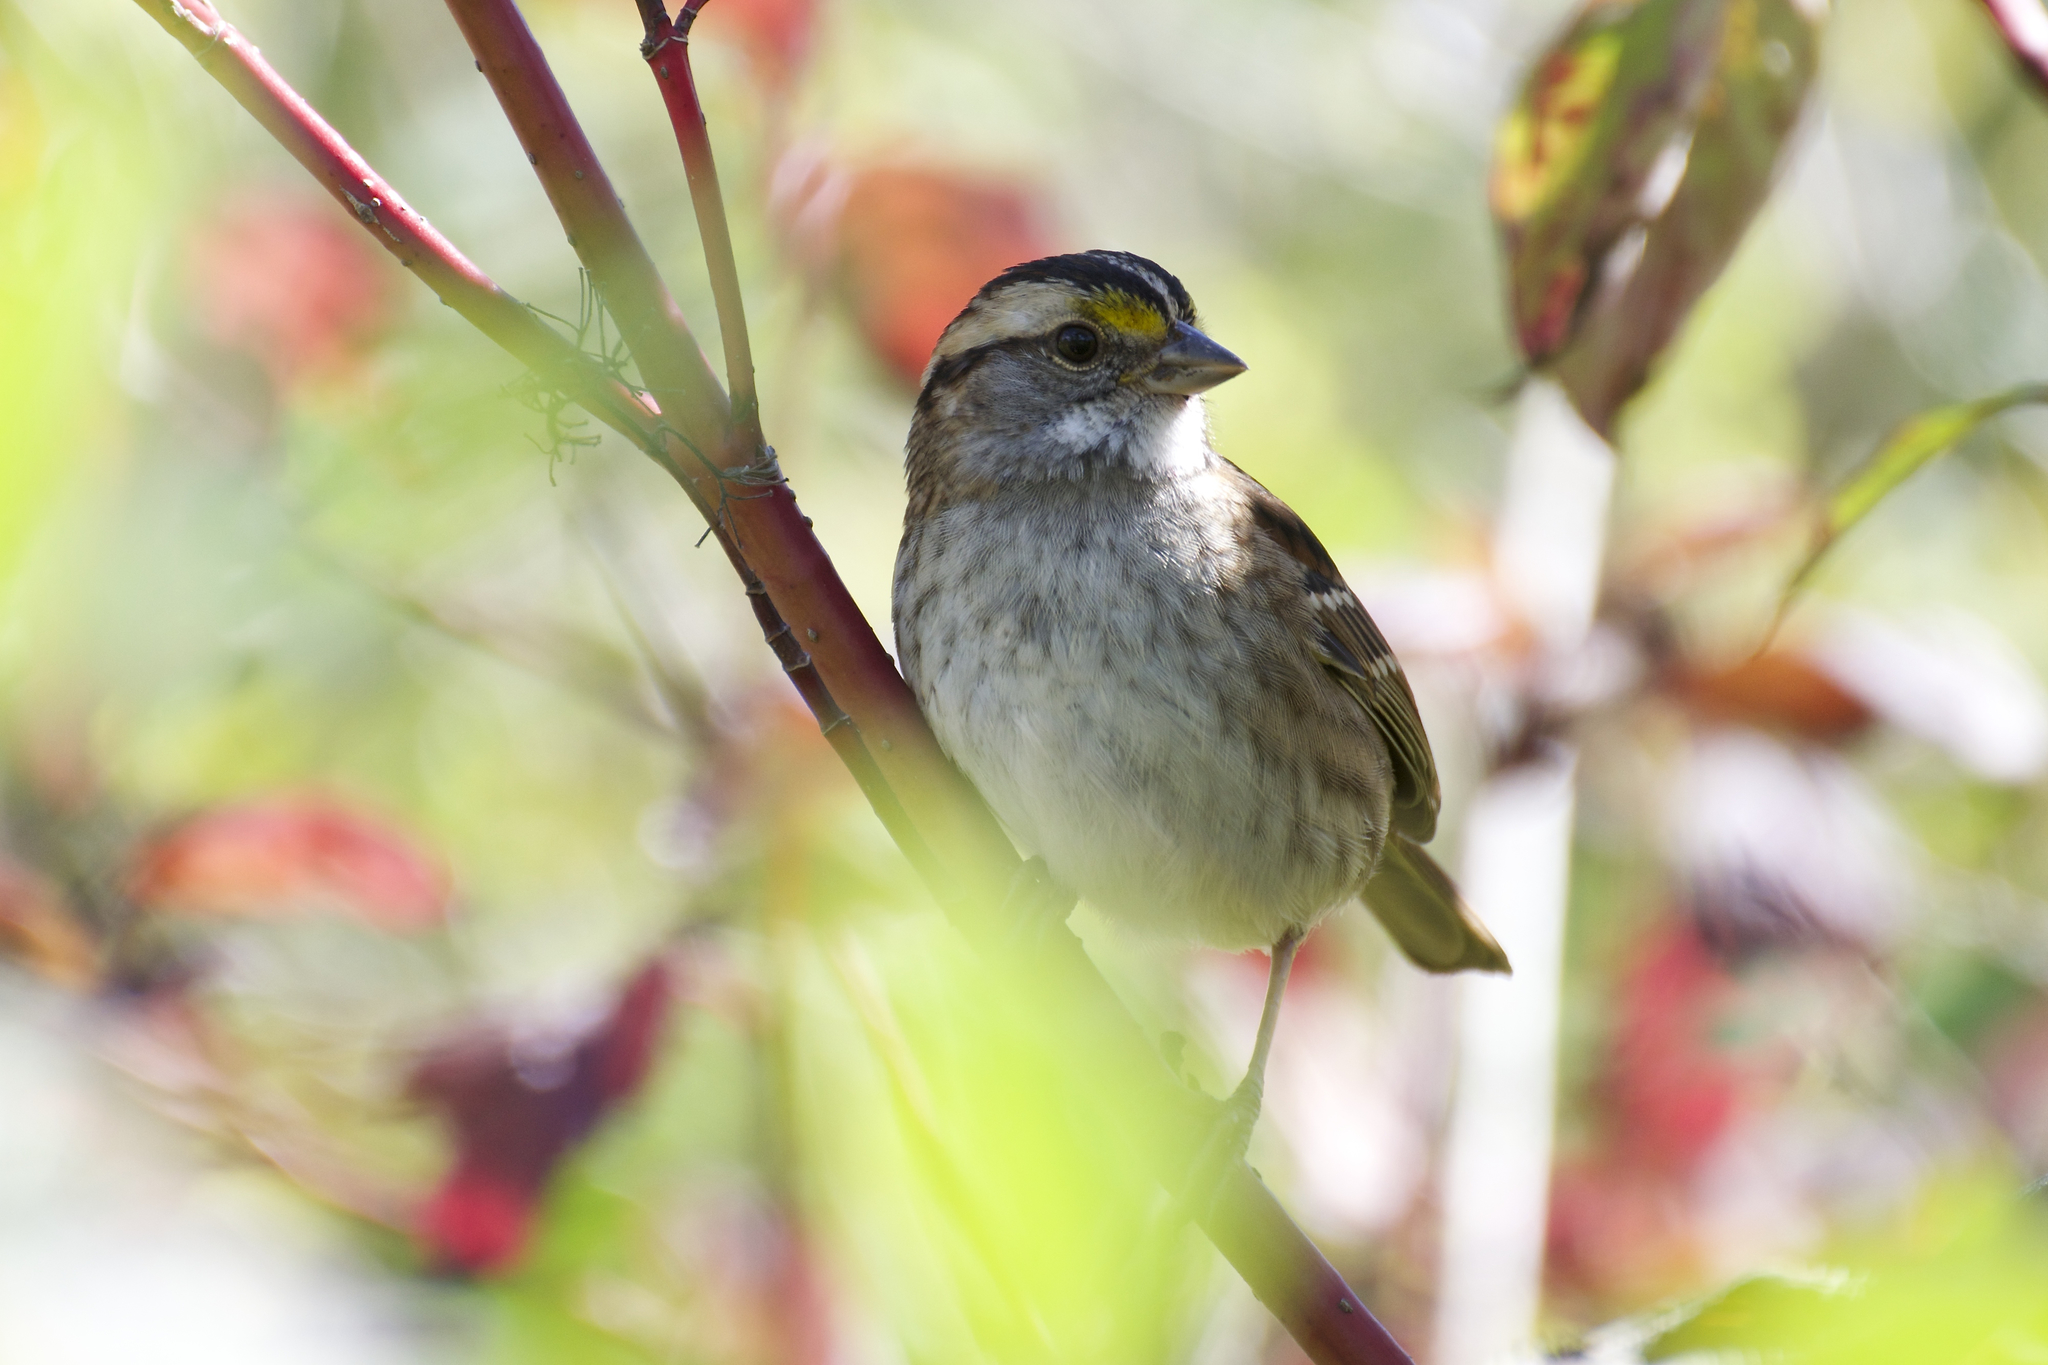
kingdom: Animalia
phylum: Chordata
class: Aves
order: Passeriformes
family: Passerellidae
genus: Zonotrichia
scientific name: Zonotrichia albicollis
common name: White-throated sparrow
